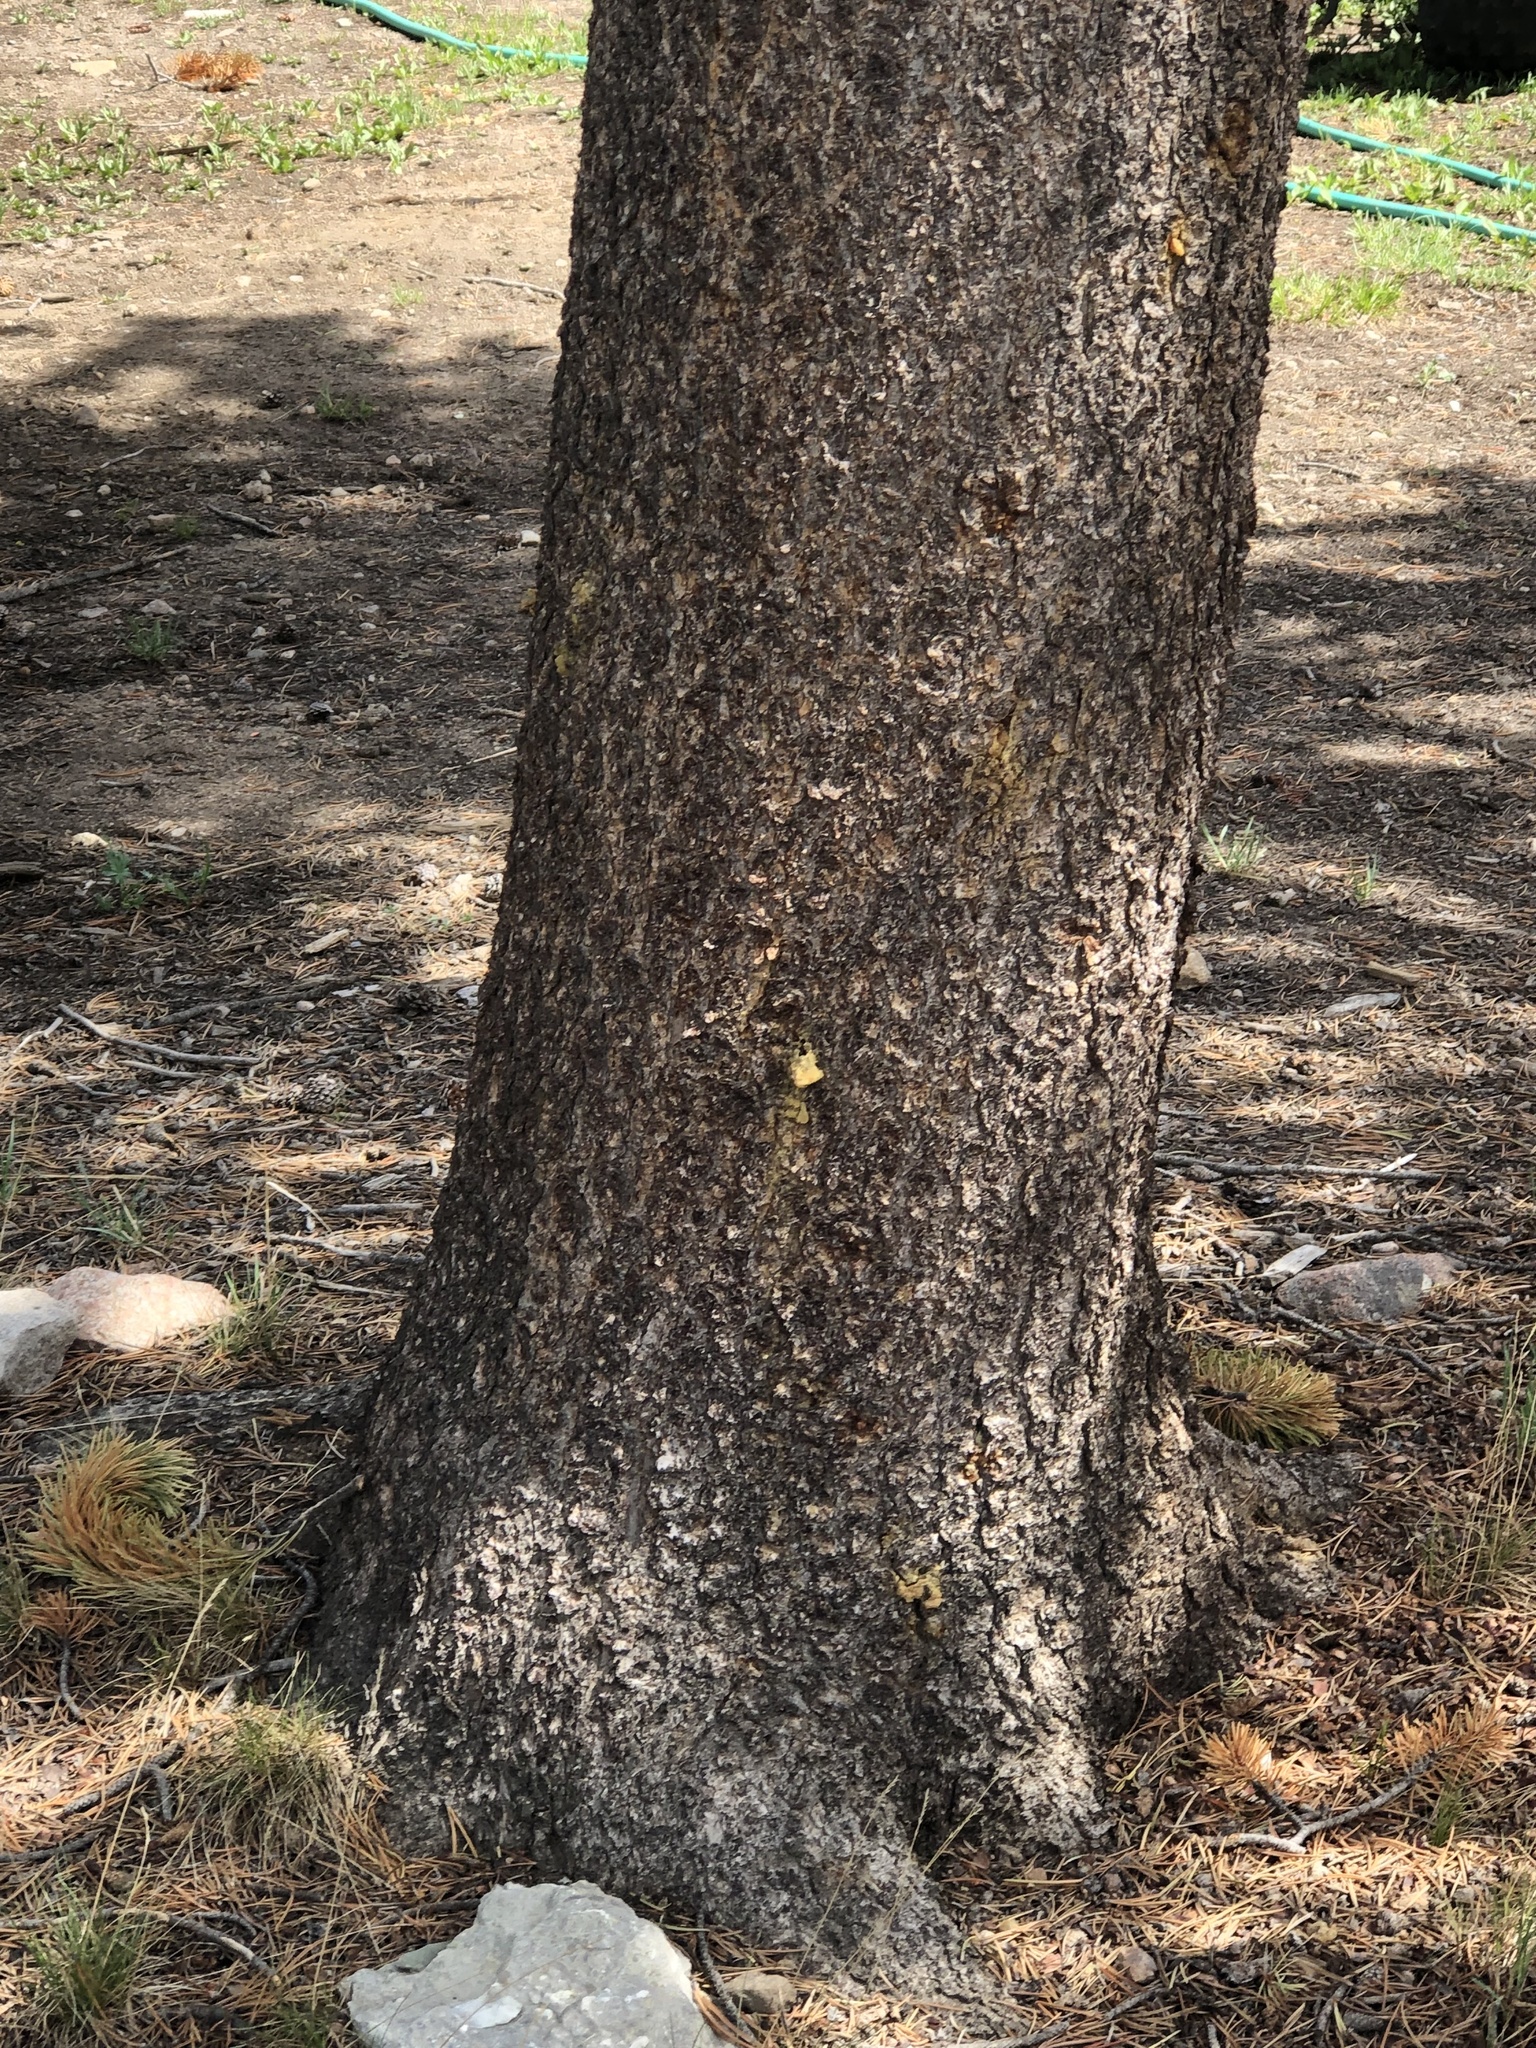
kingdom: Plantae
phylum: Tracheophyta
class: Pinopsida
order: Pinales
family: Pinaceae
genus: Pinus
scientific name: Pinus contorta
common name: Lodgepole pine
